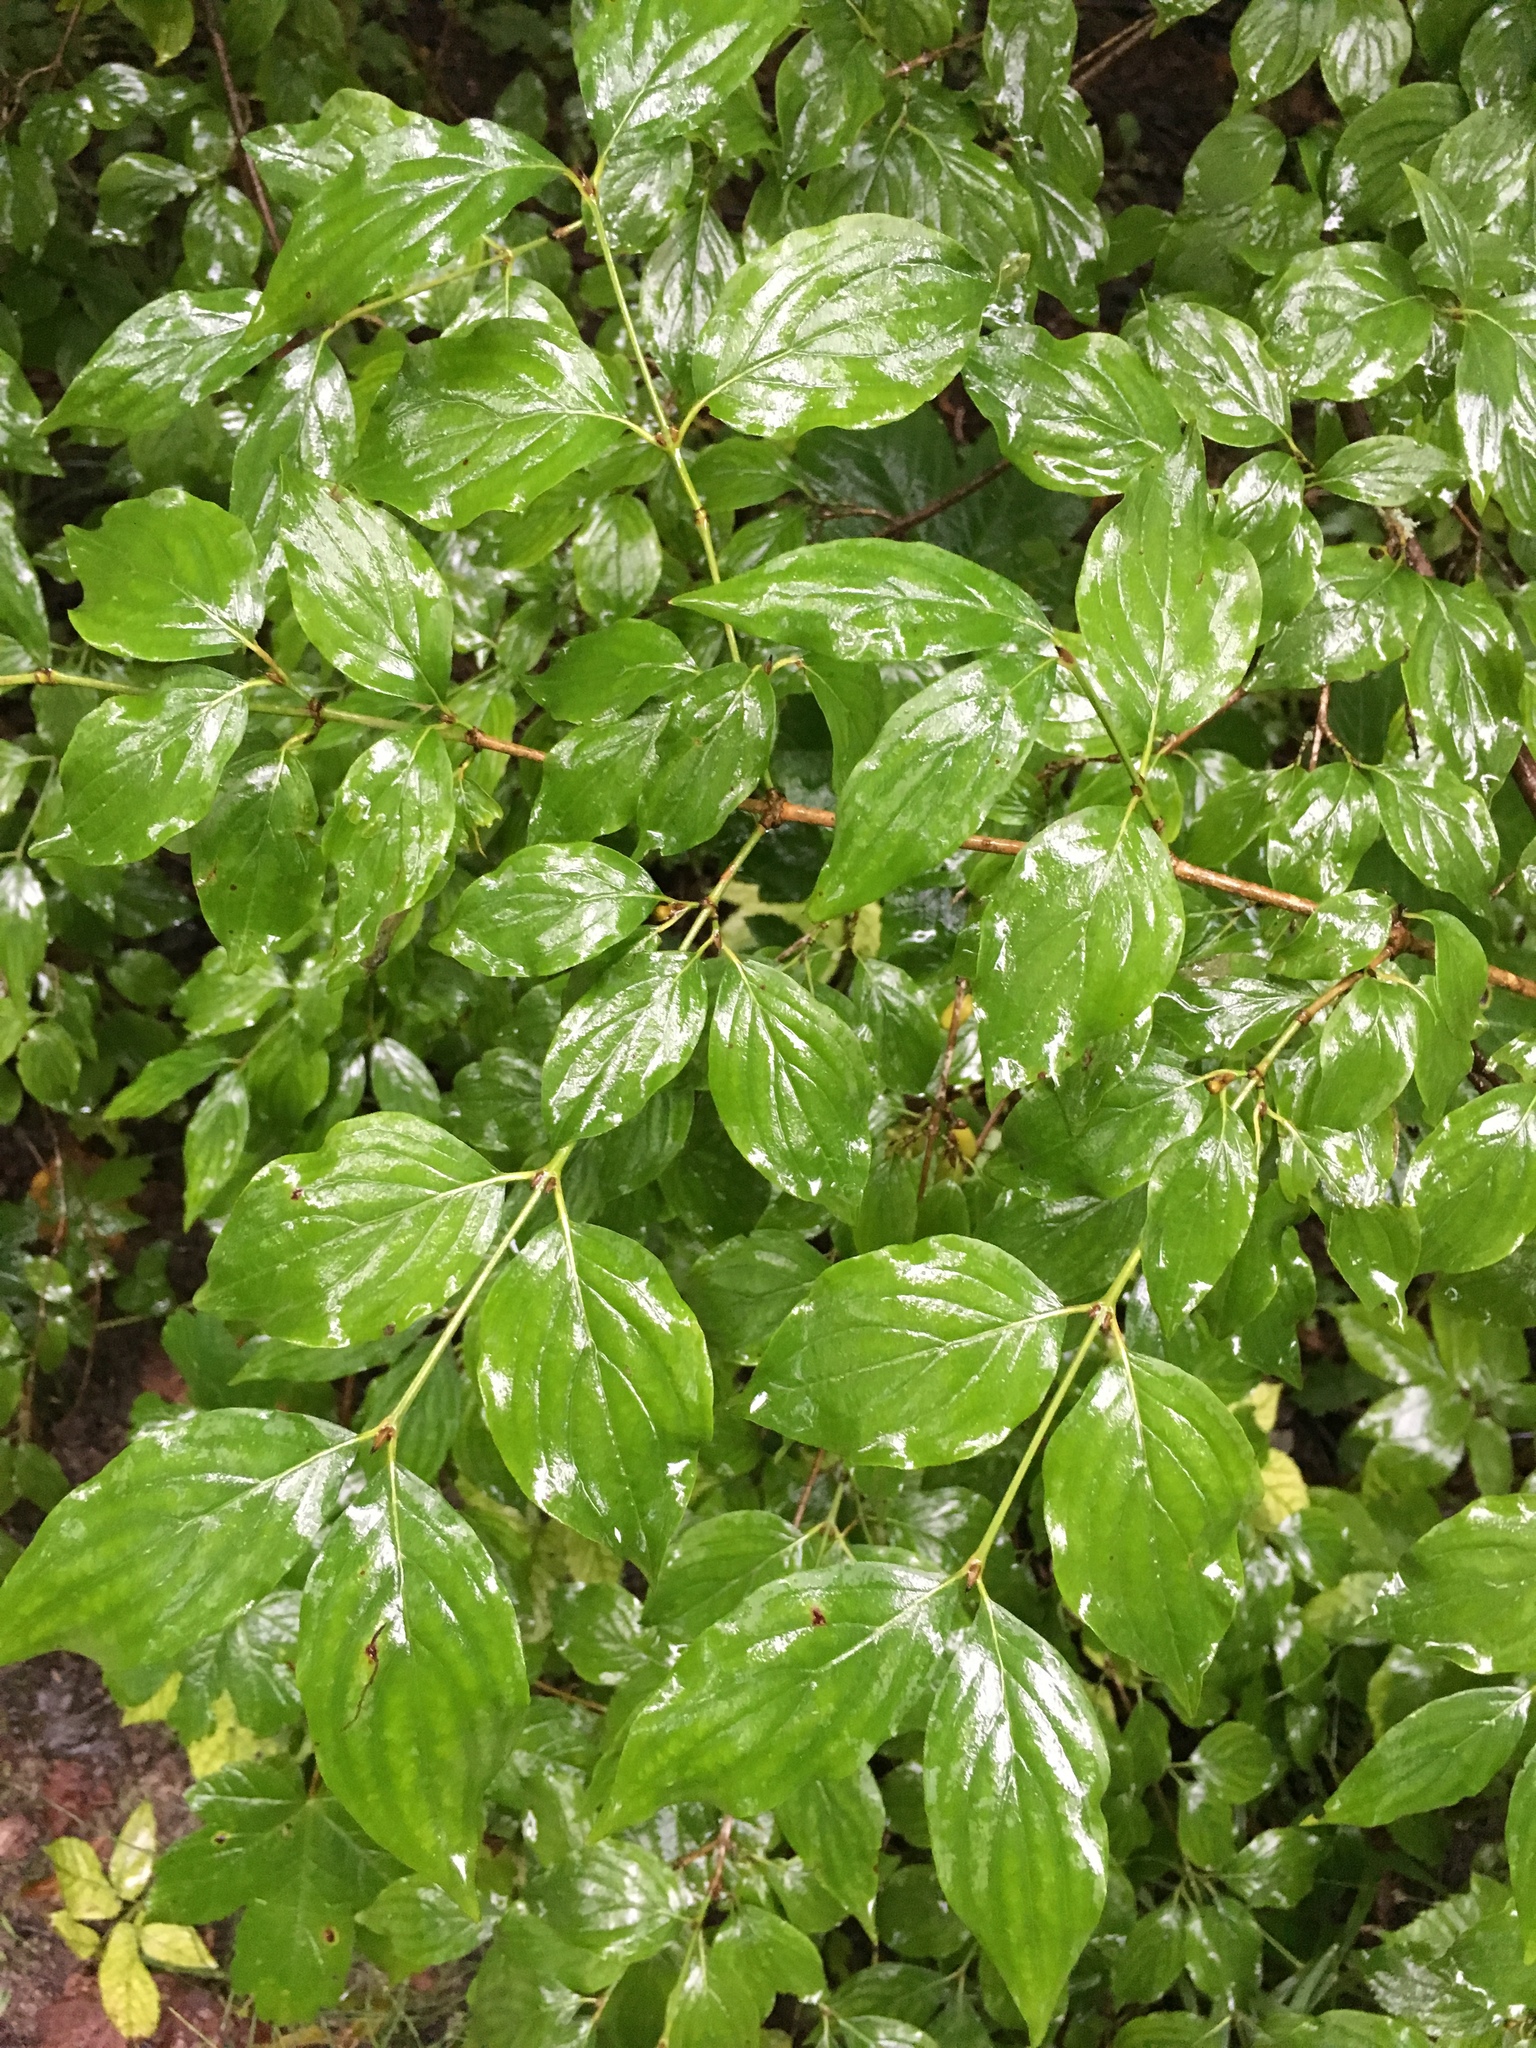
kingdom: Plantae
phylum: Tracheophyta
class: Magnoliopsida
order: Cornales
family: Cornaceae
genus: Cornus
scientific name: Cornus sanguinea
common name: Dogwood
